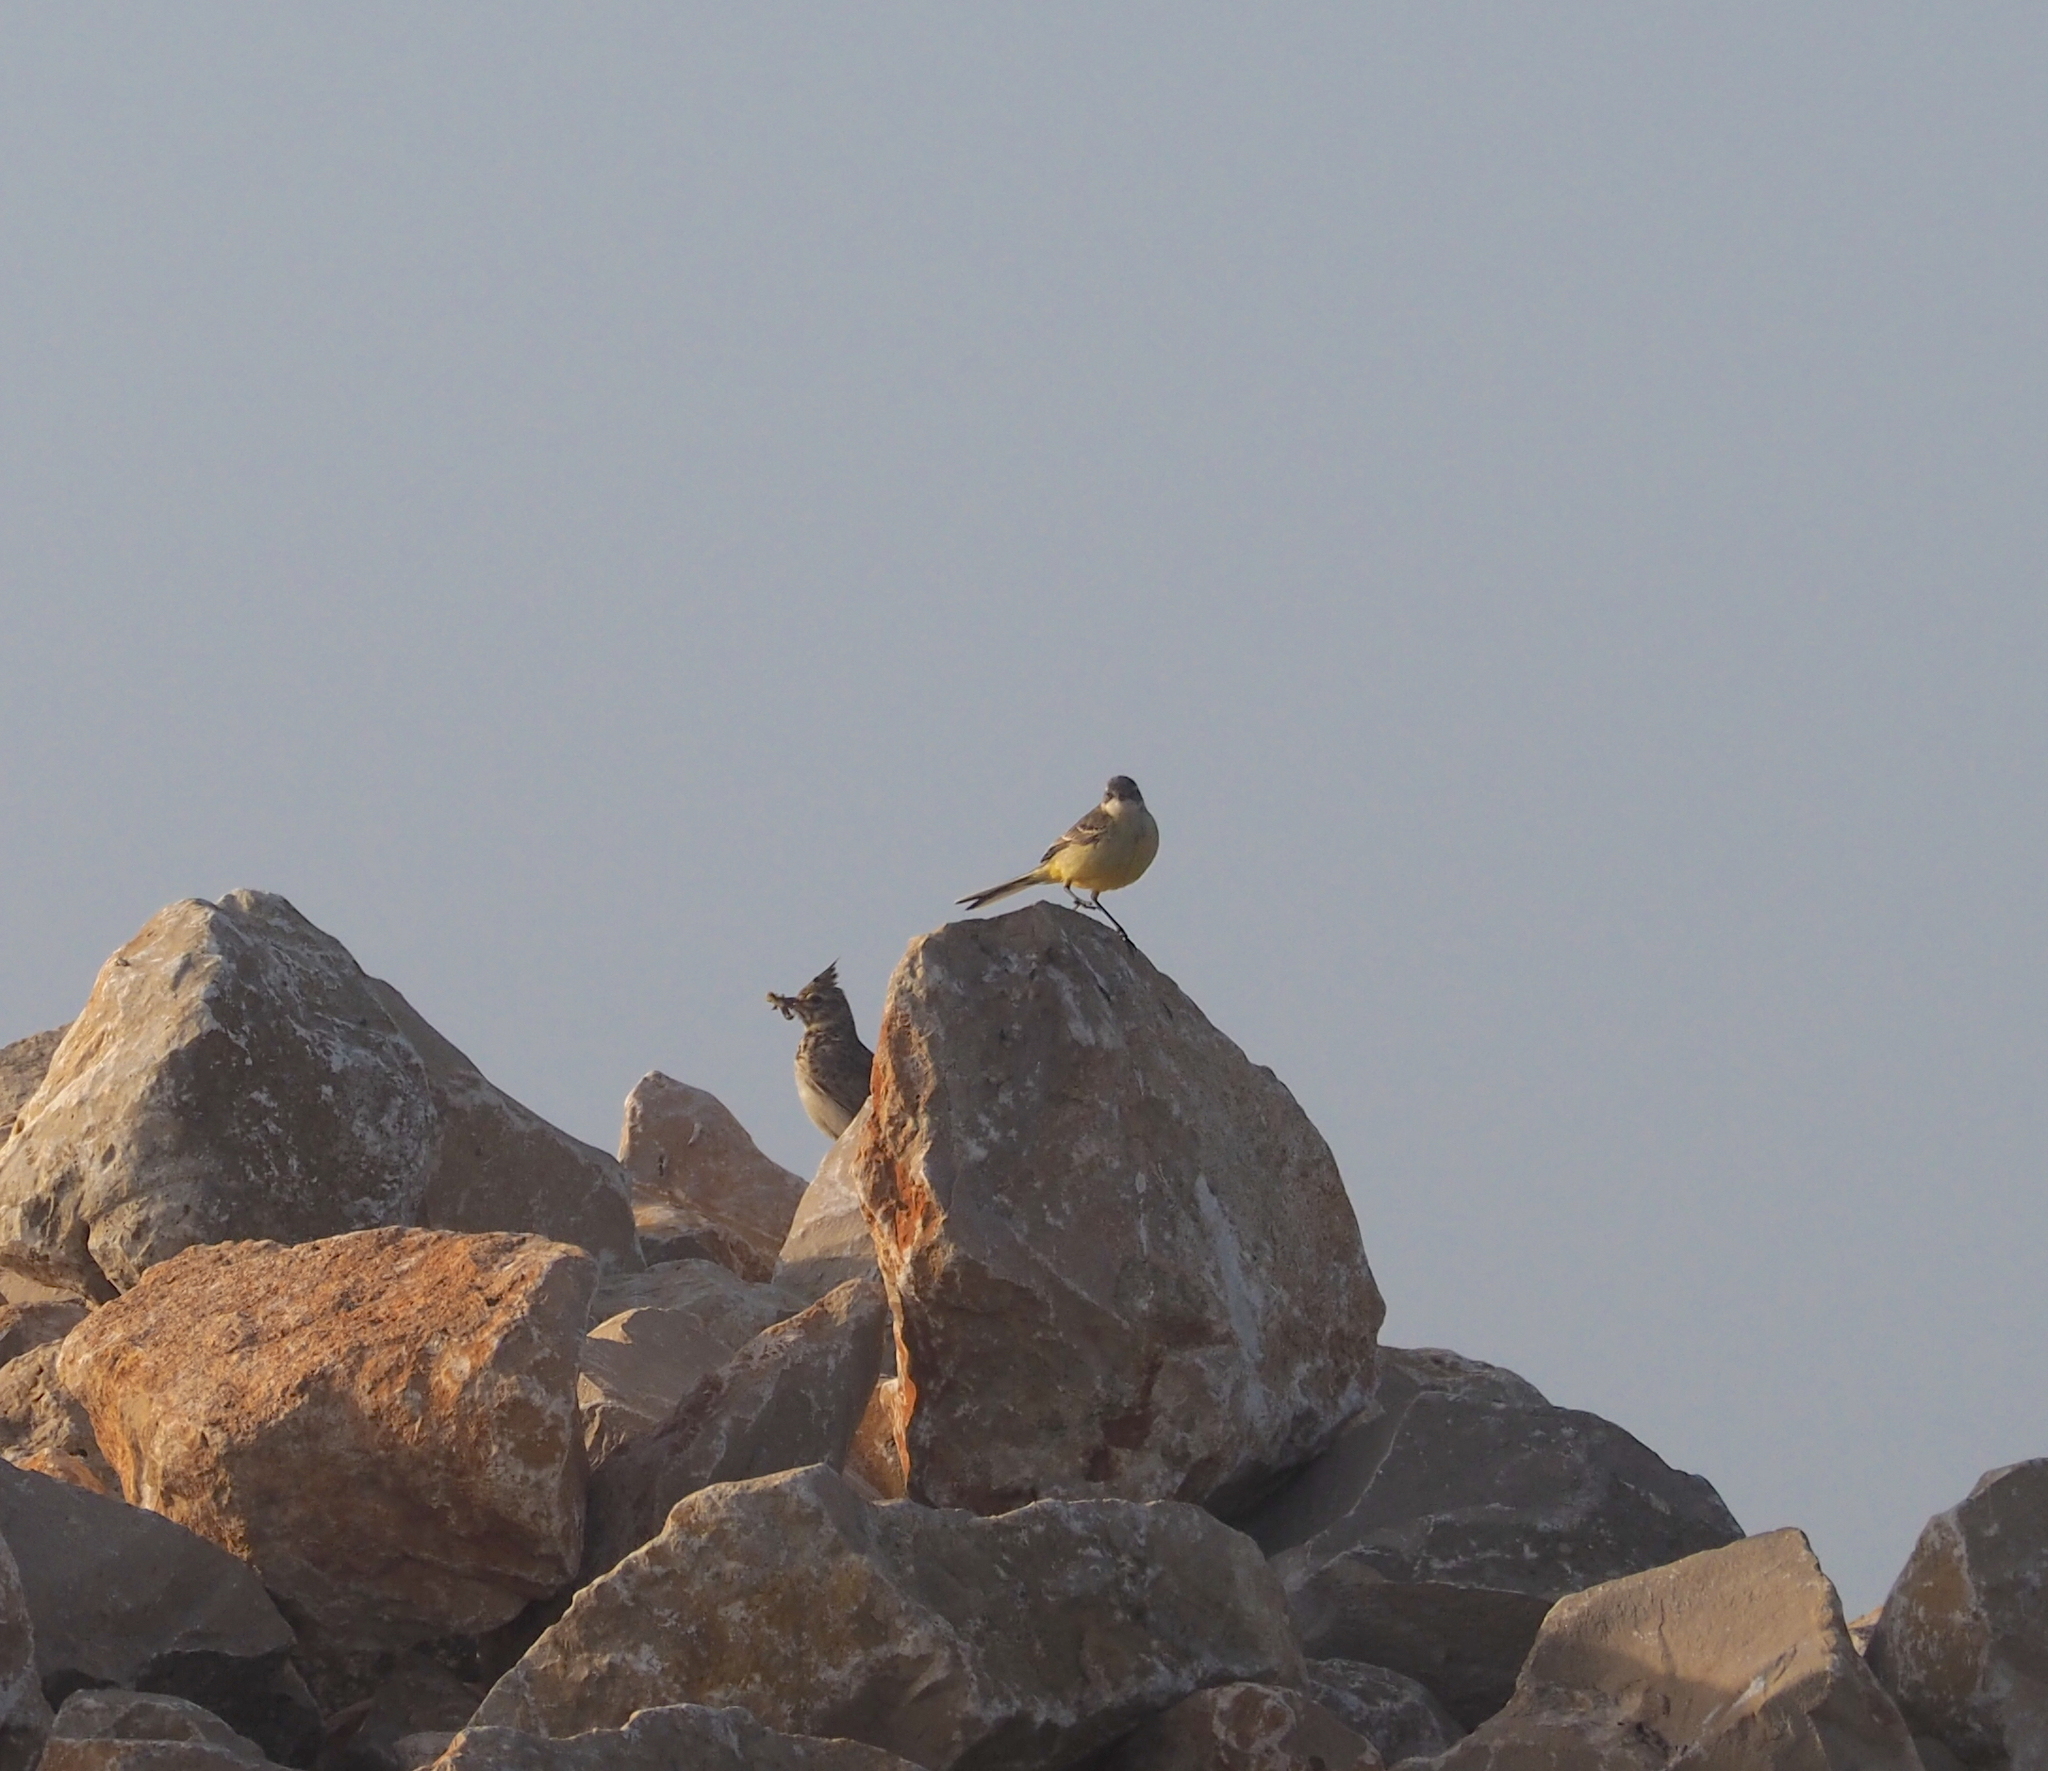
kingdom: Animalia
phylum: Chordata
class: Aves
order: Passeriformes
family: Alaudidae
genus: Galerida
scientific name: Galerida theklae
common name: Thekla lark
